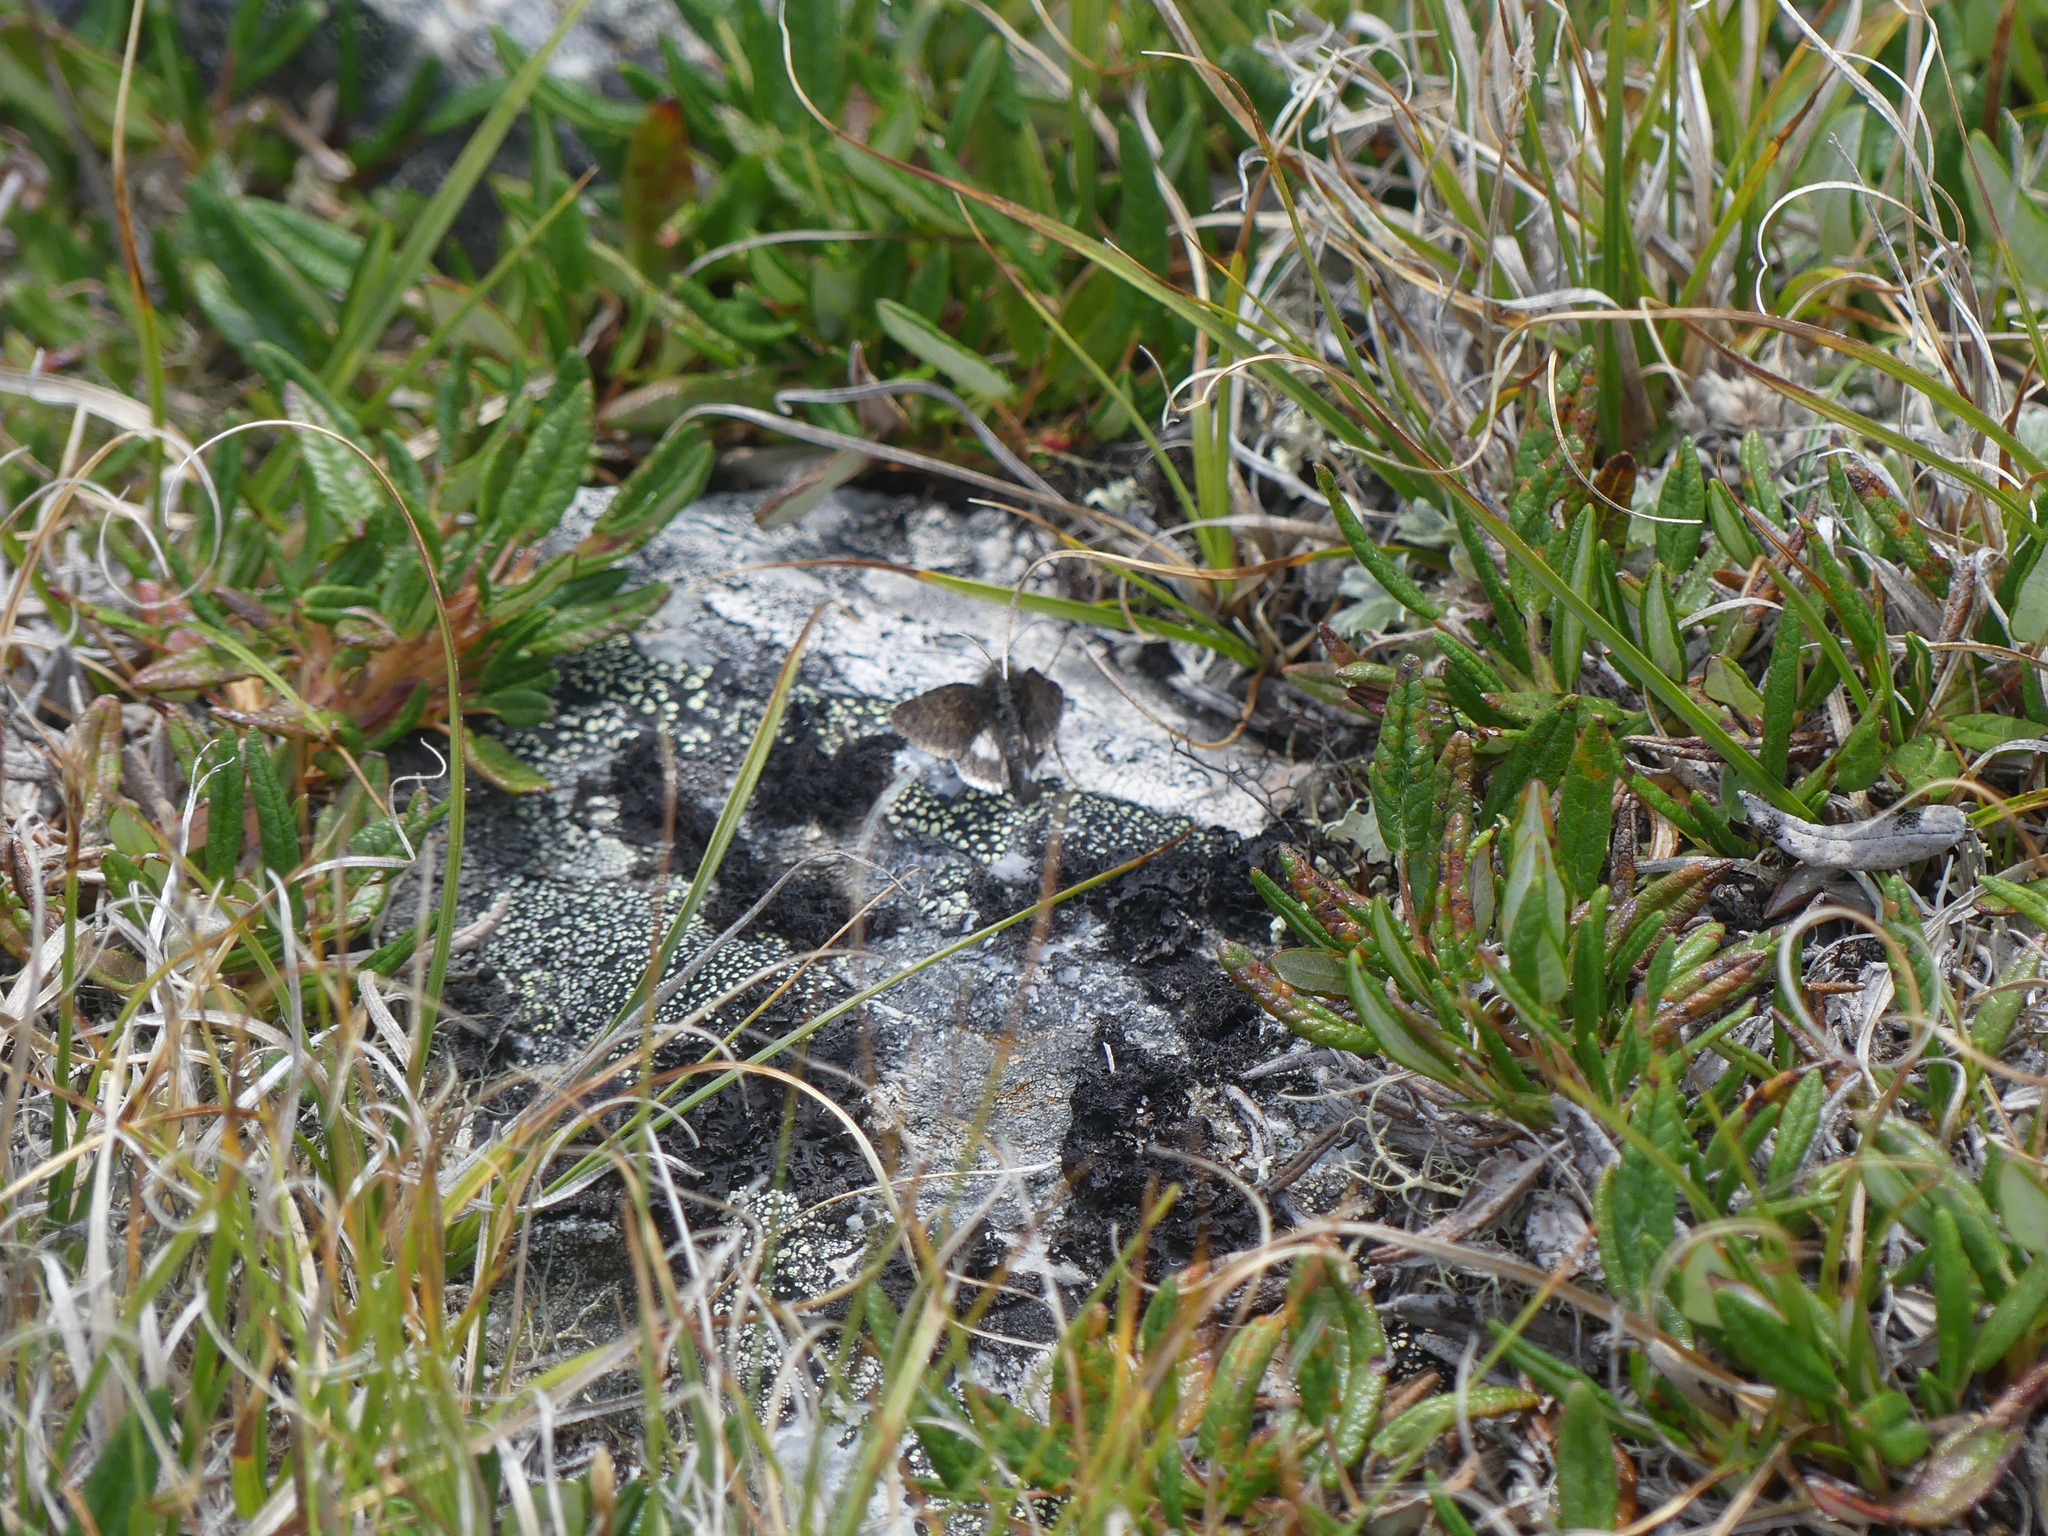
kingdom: Animalia
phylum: Arthropoda
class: Insecta
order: Lepidoptera
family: Noctuidae
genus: Sympistis
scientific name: Sympistis nigrita
